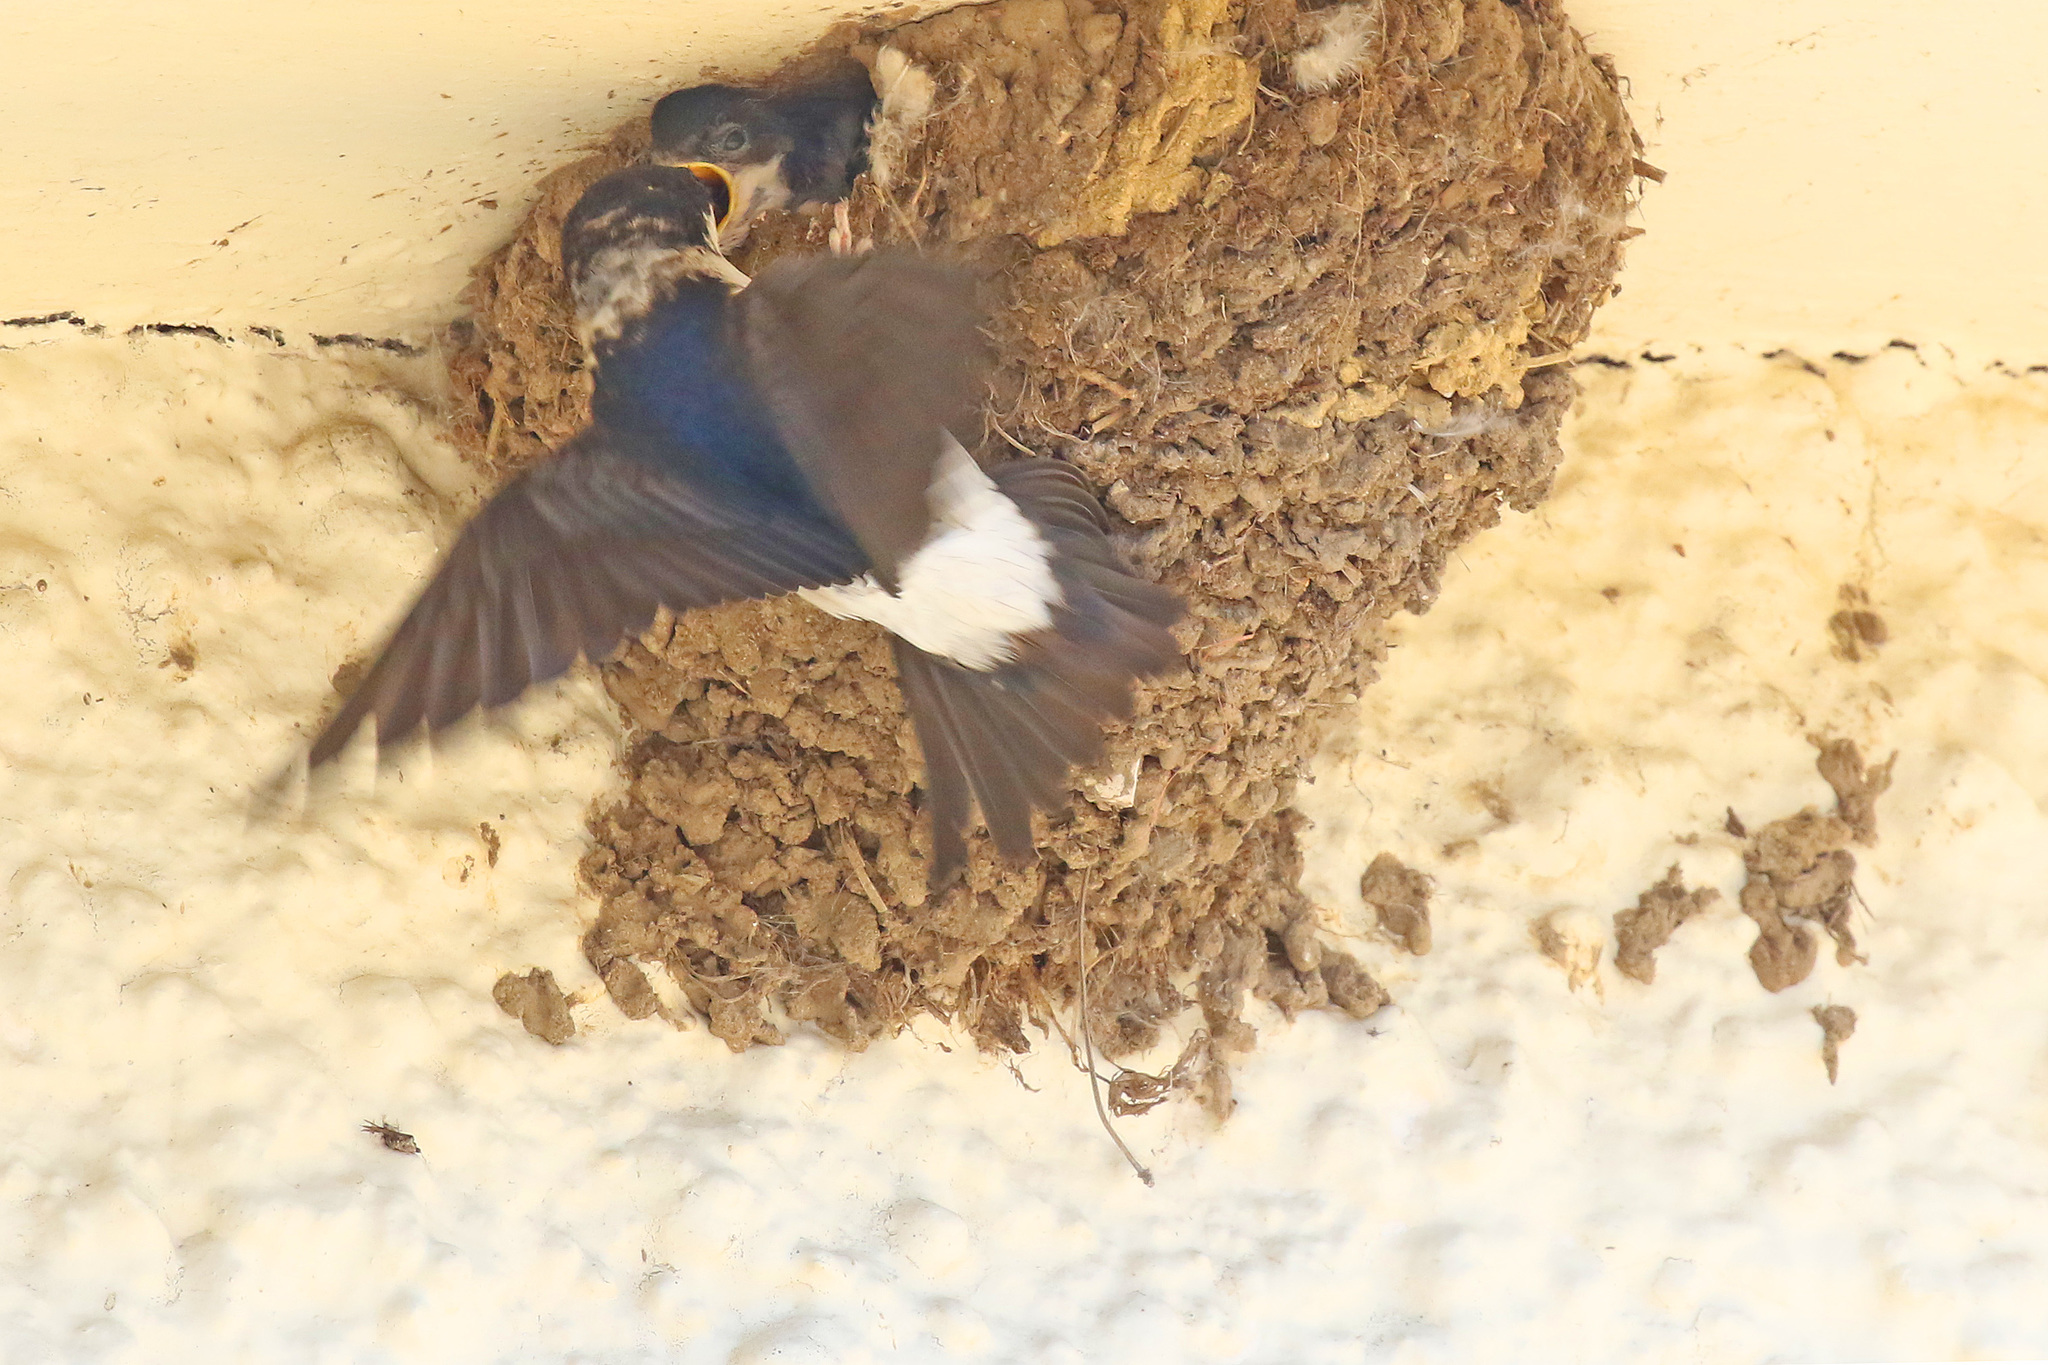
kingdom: Animalia
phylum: Chordata
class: Aves
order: Passeriformes
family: Hirundinidae
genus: Delichon
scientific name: Delichon urbicum
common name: Common house martin
